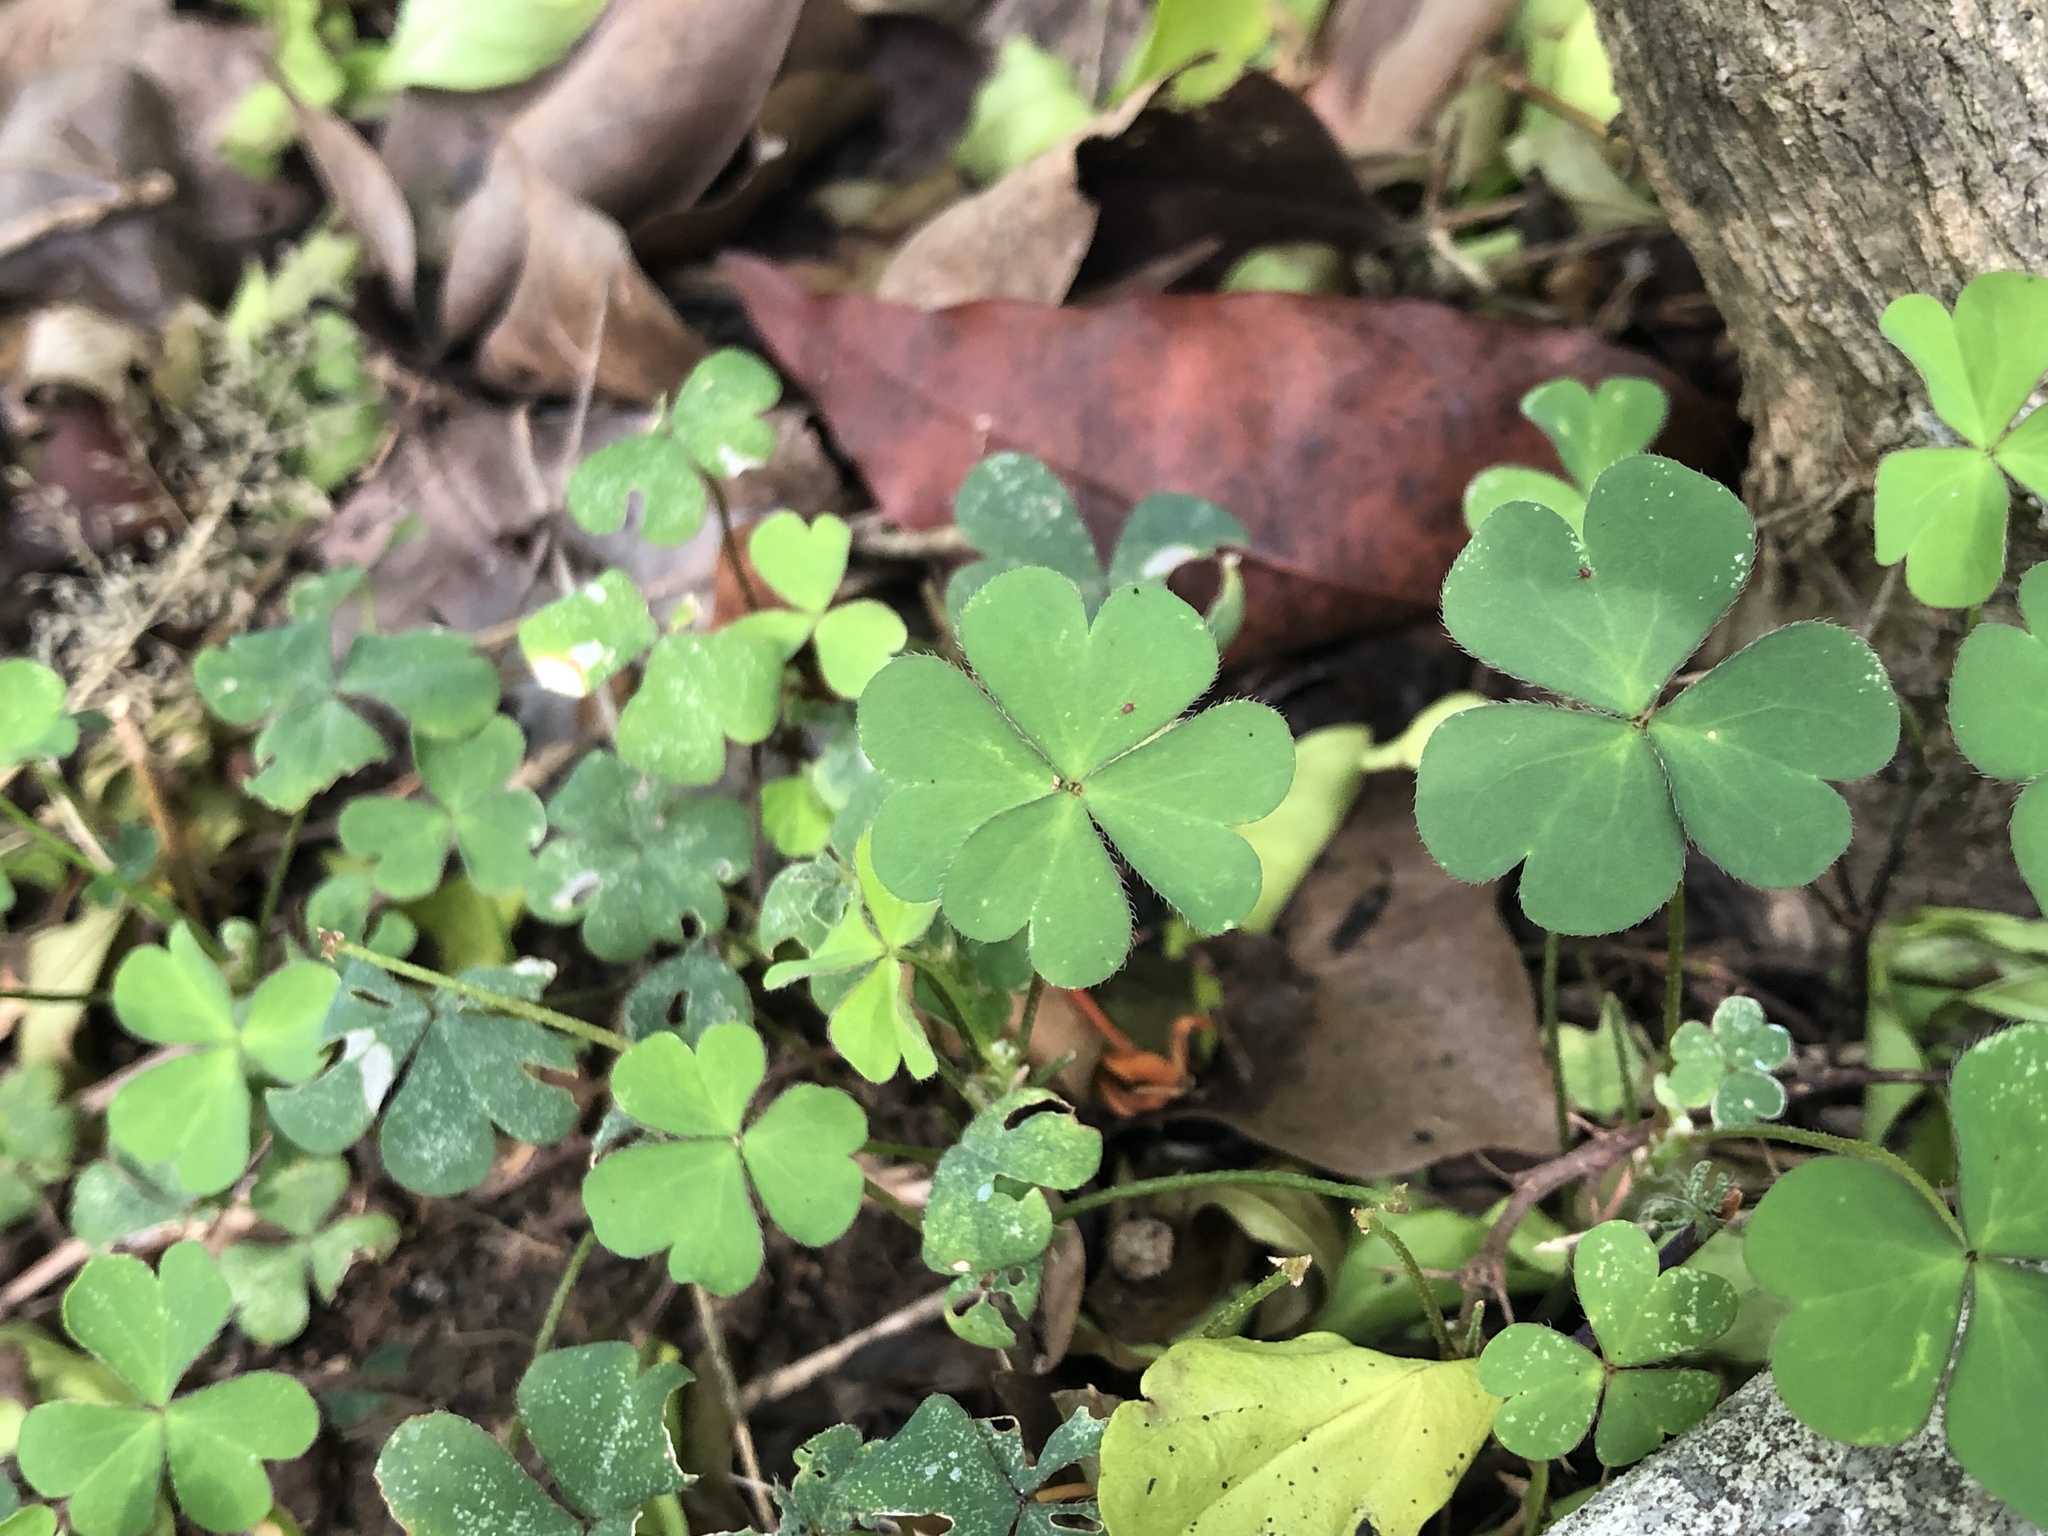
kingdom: Plantae
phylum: Tracheophyta
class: Magnoliopsida
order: Oxalidales
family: Oxalidaceae
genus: Oxalis
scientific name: Oxalis corniculata
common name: Procumbent yellow-sorrel
